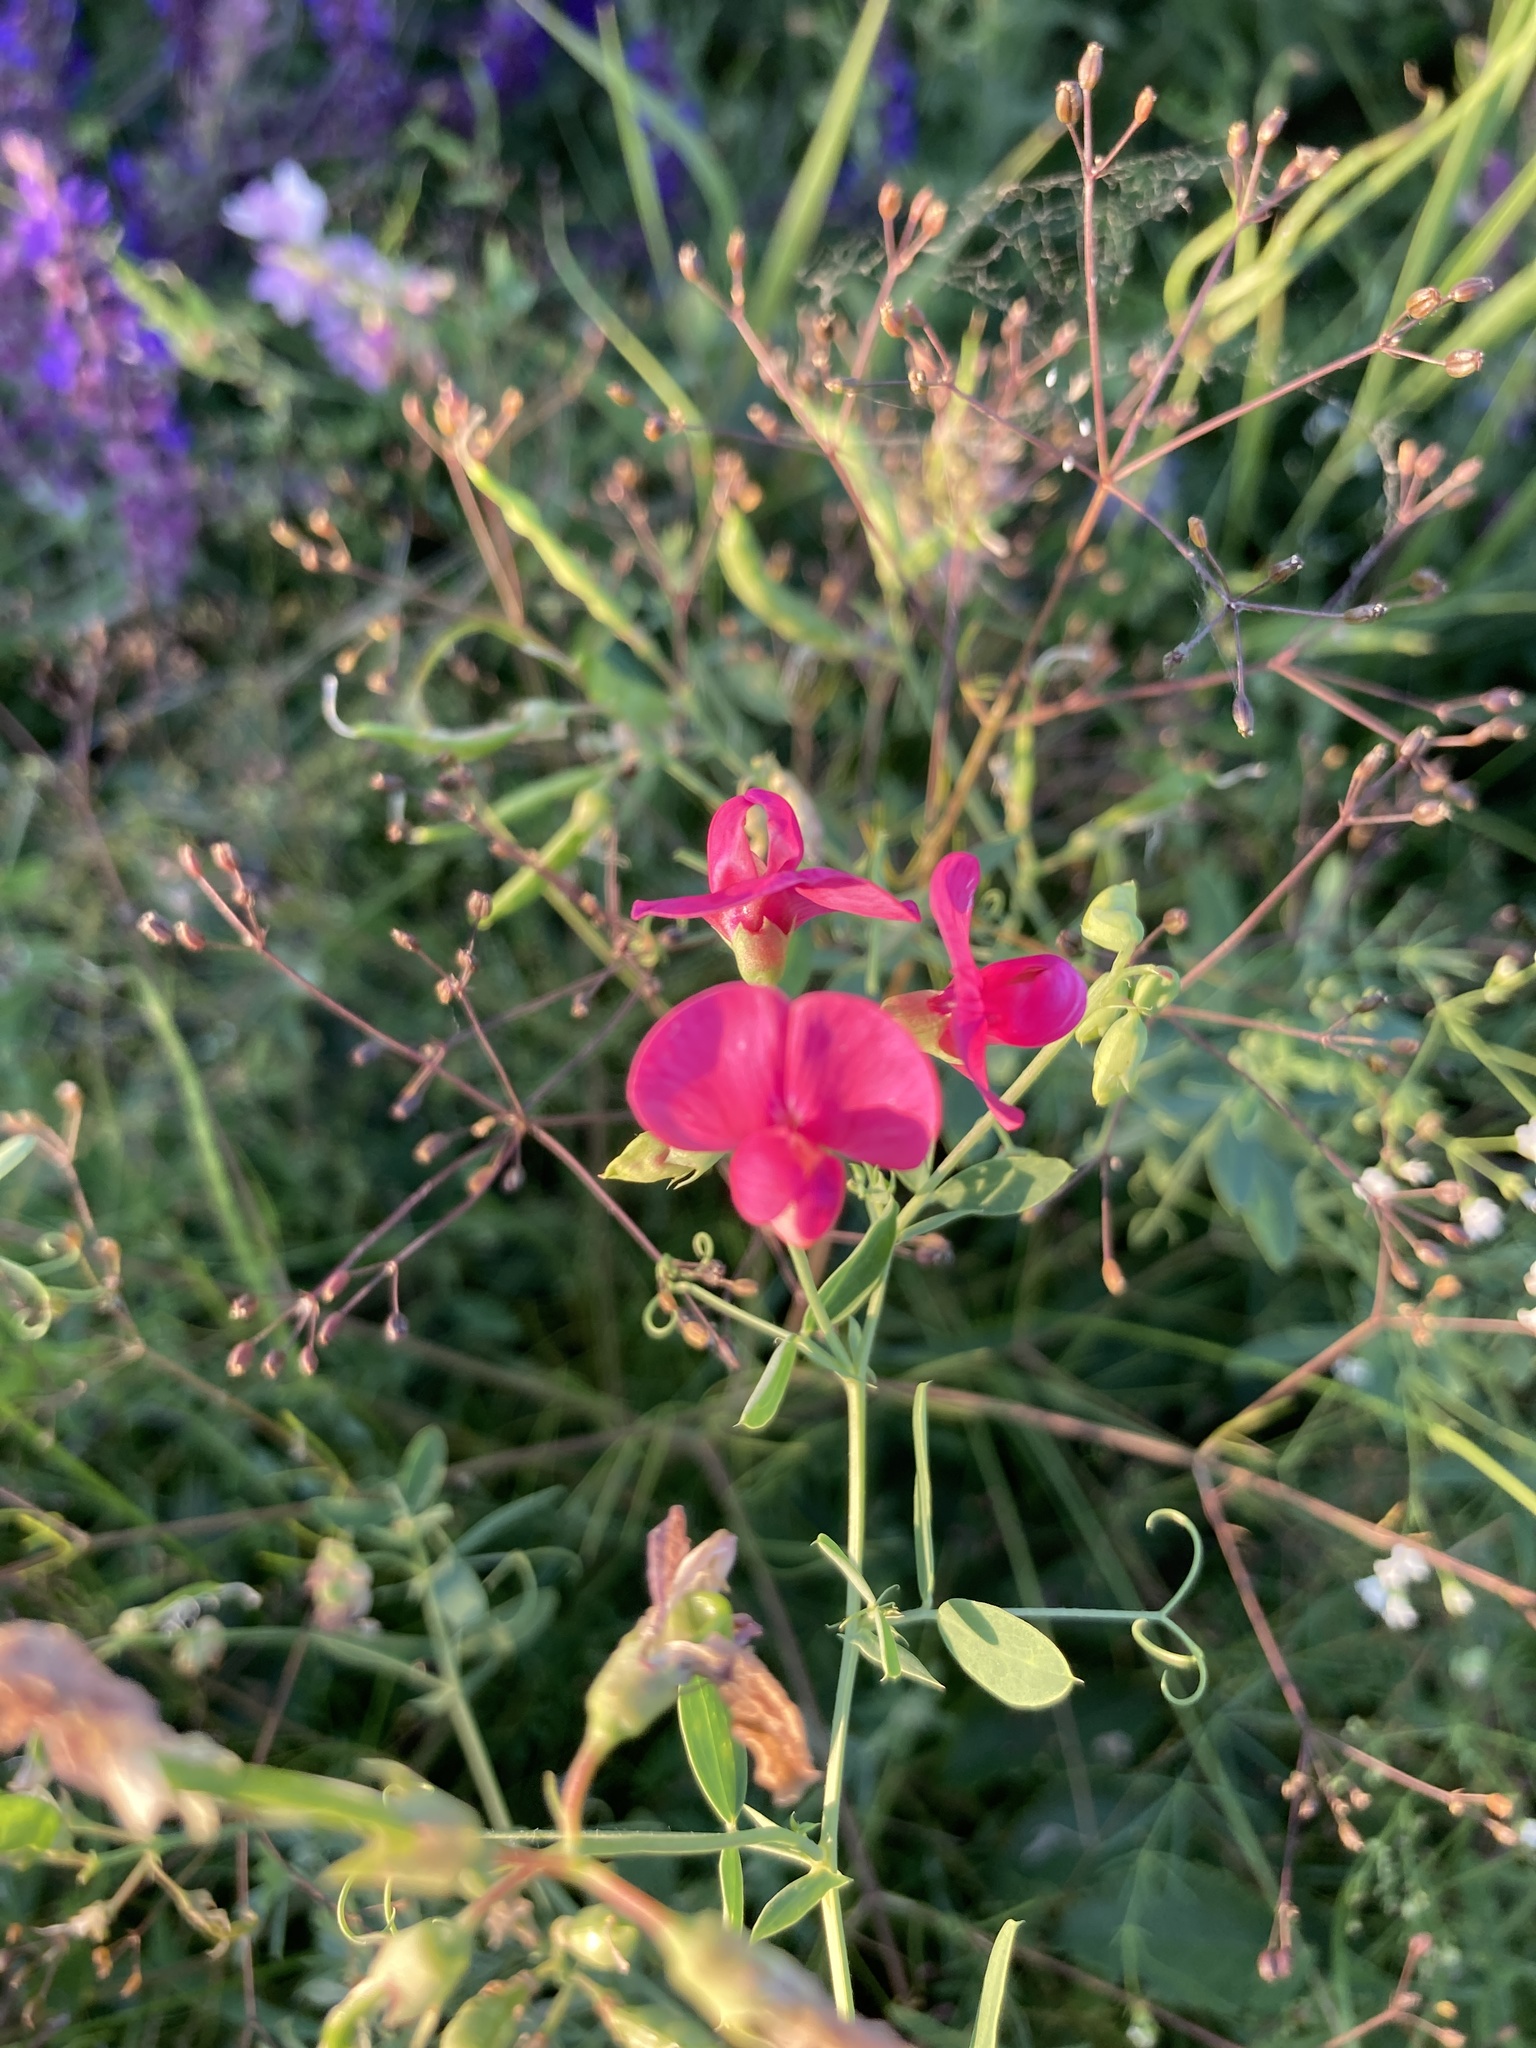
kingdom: Plantae
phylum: Tracheophyta
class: Magnoliopsida
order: Fabales
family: Fabaceae
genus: Lathyrus
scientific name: Lathyrus tuberosus
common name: Tuberous pea
